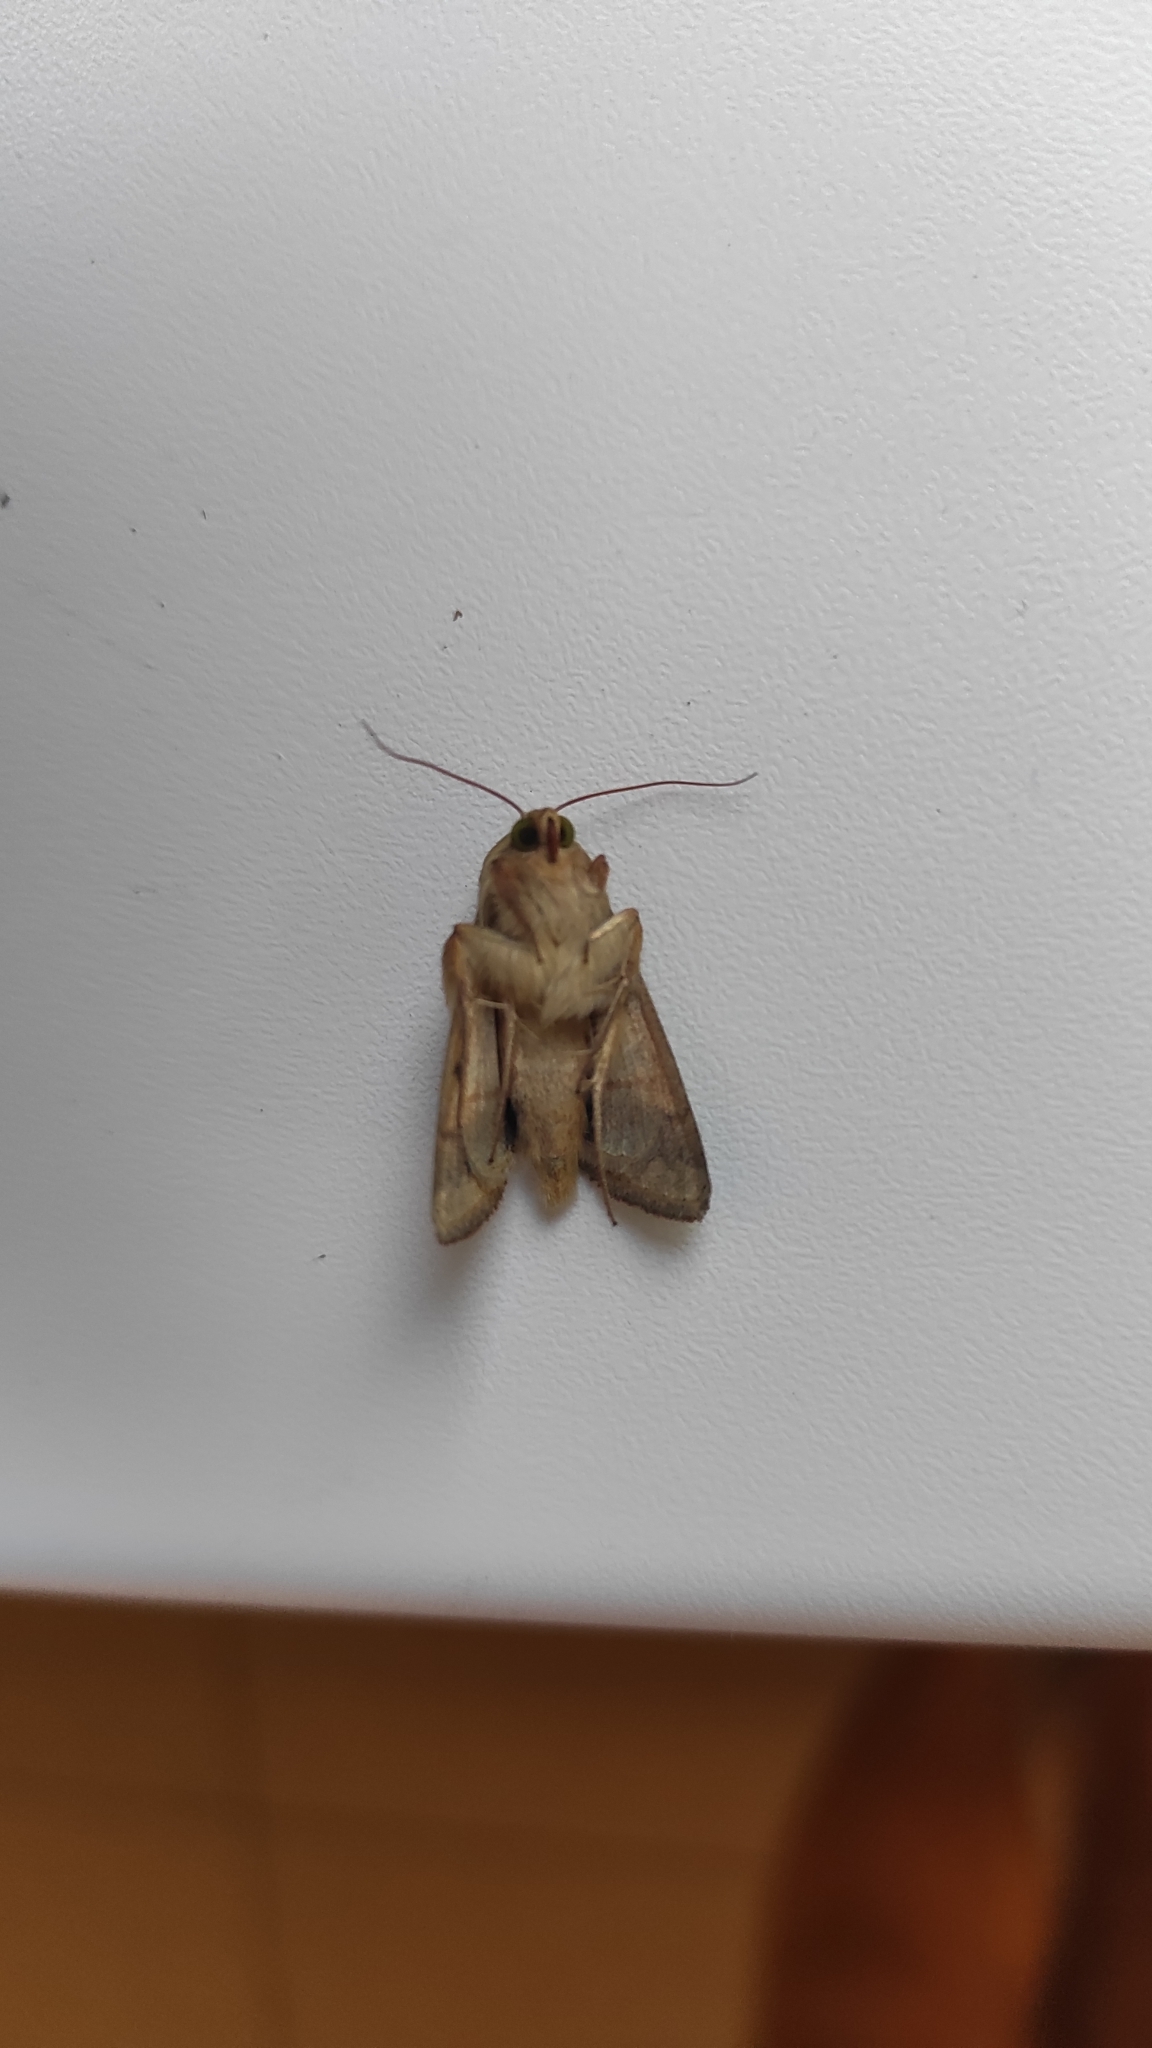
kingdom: Animalia
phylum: Arthropoda
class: Insecta
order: Lepidoptera
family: Noctuidae
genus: Helicoverpa
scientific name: Helicoverpa armigera
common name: Cotton bollworm
